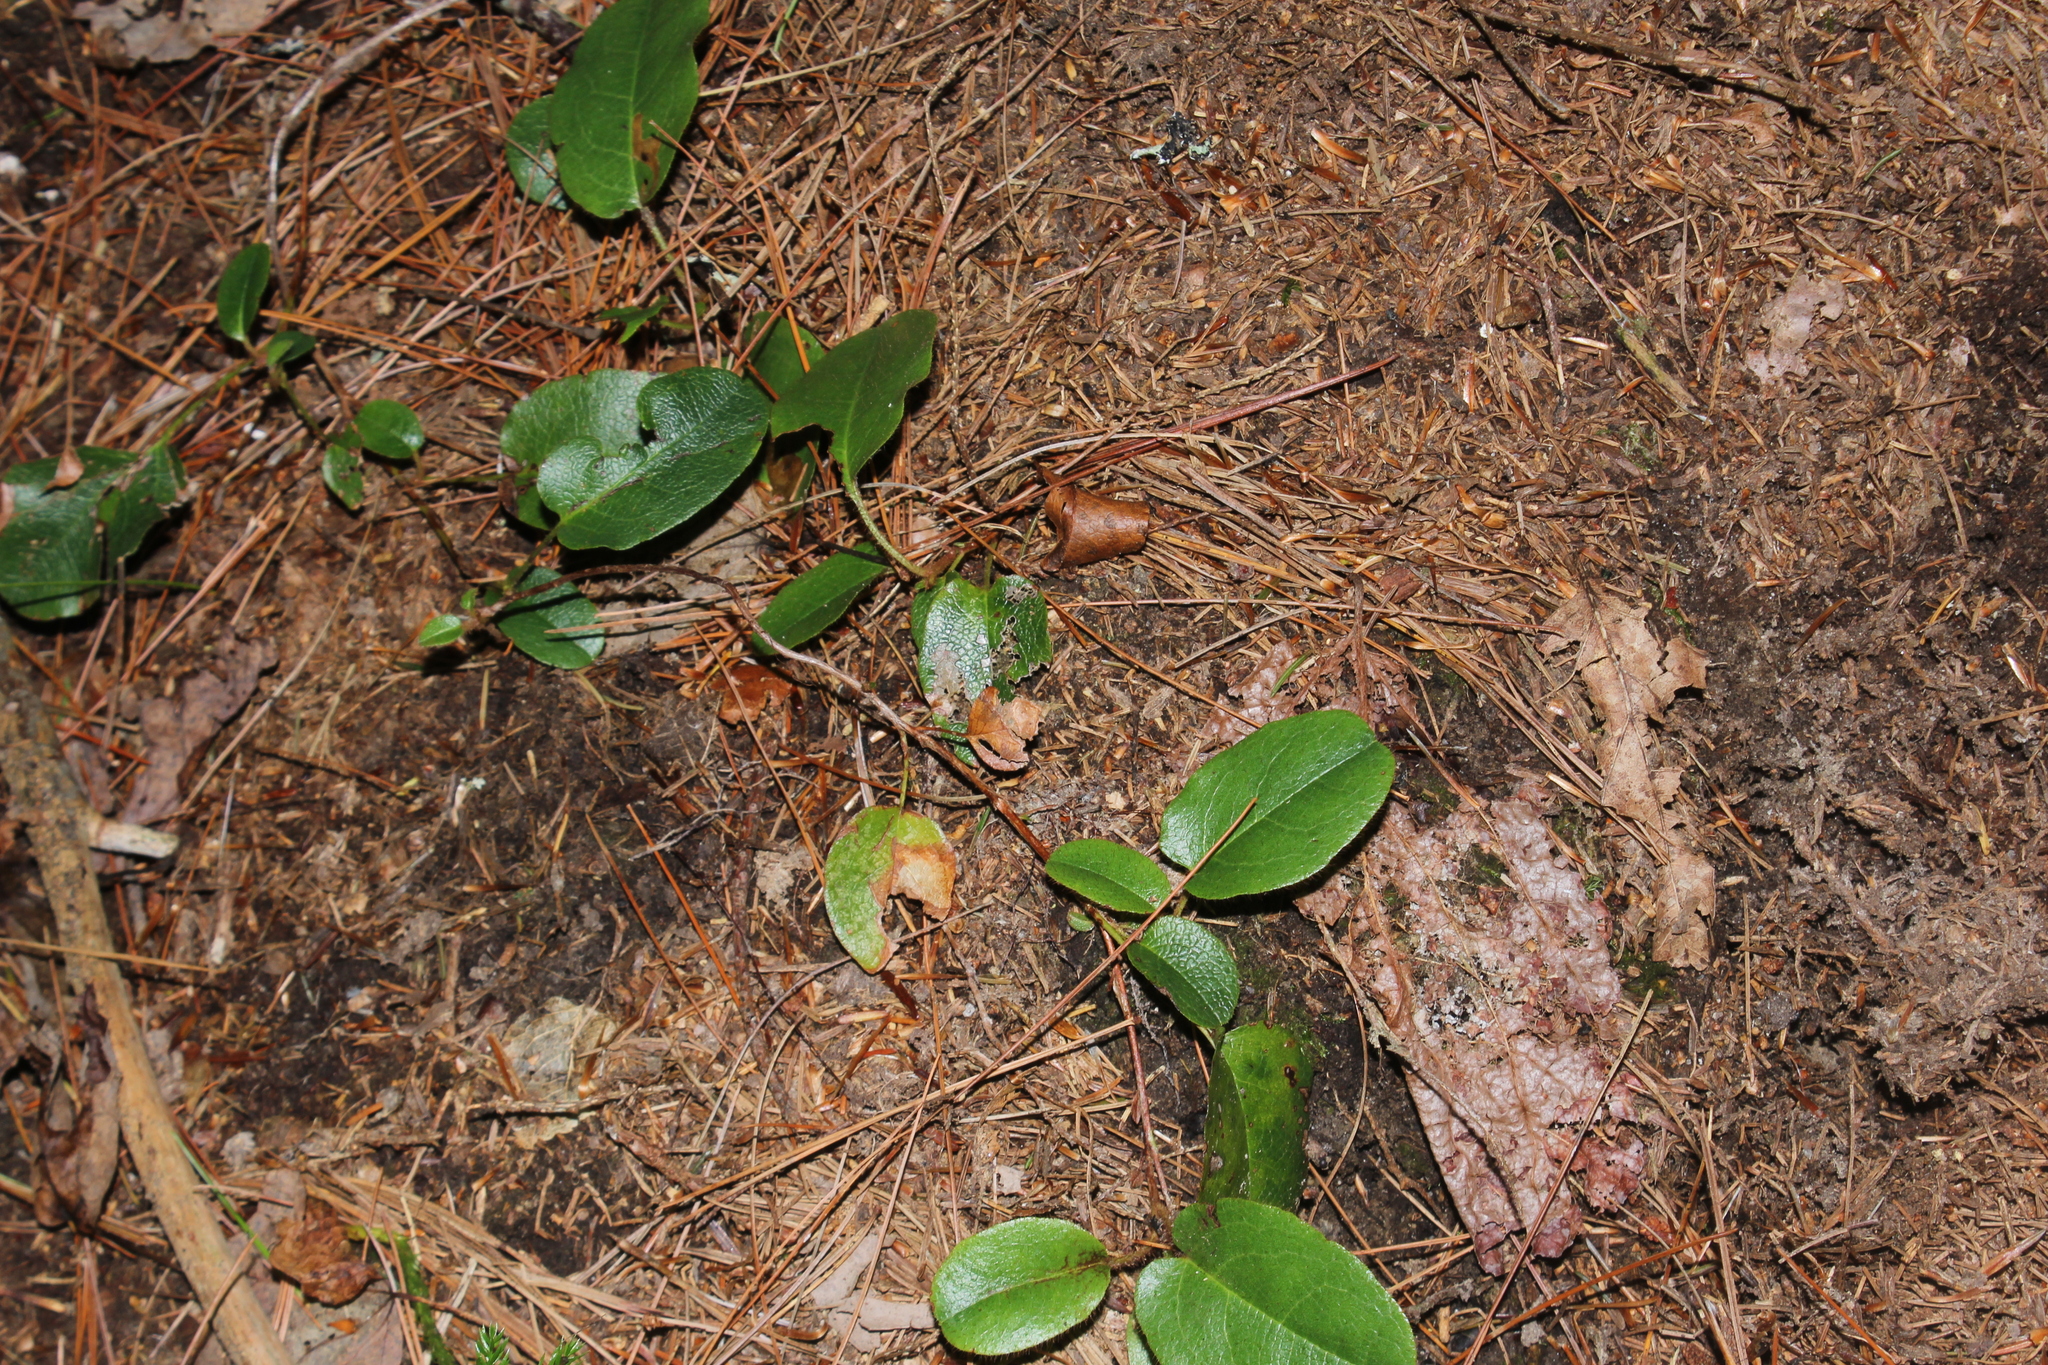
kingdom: Plantae
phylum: Tracheophyta
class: Magnoliopsida
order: Ericales
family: Ericaceae
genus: Epigaea
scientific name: Epigaea repens
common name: Gravelroot
